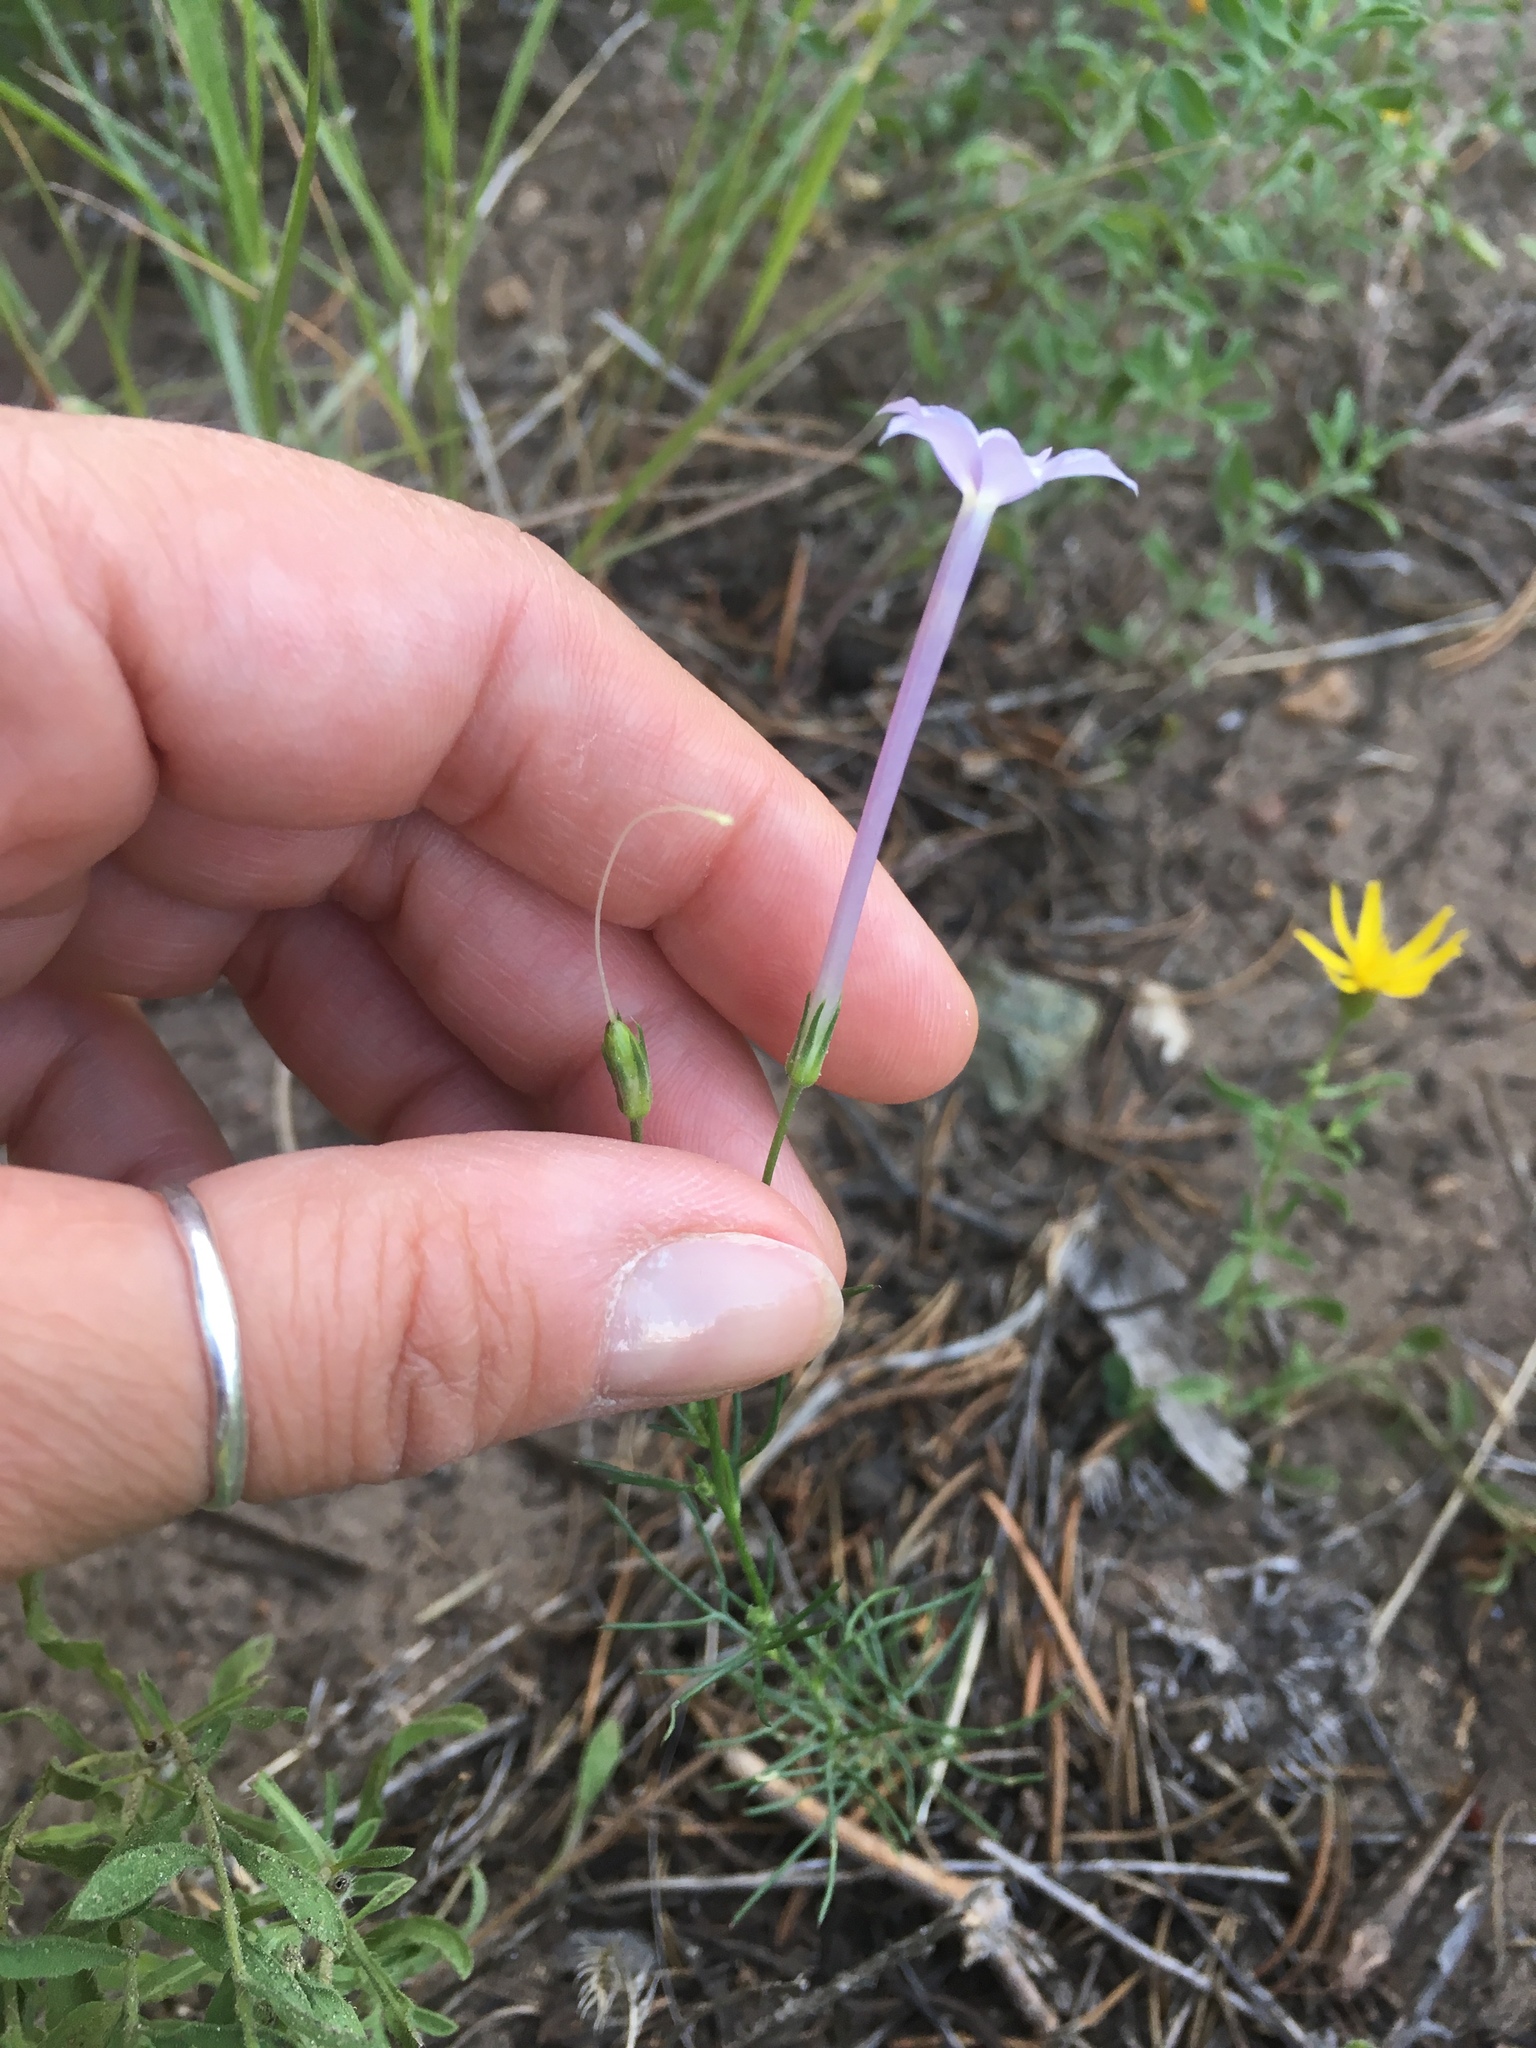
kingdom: Plantae
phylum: Tracheophyta
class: Magnoliopsida
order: Ericales
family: Polemoniaceae
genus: Ipomopsis
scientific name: Ipomopsis longiflora
